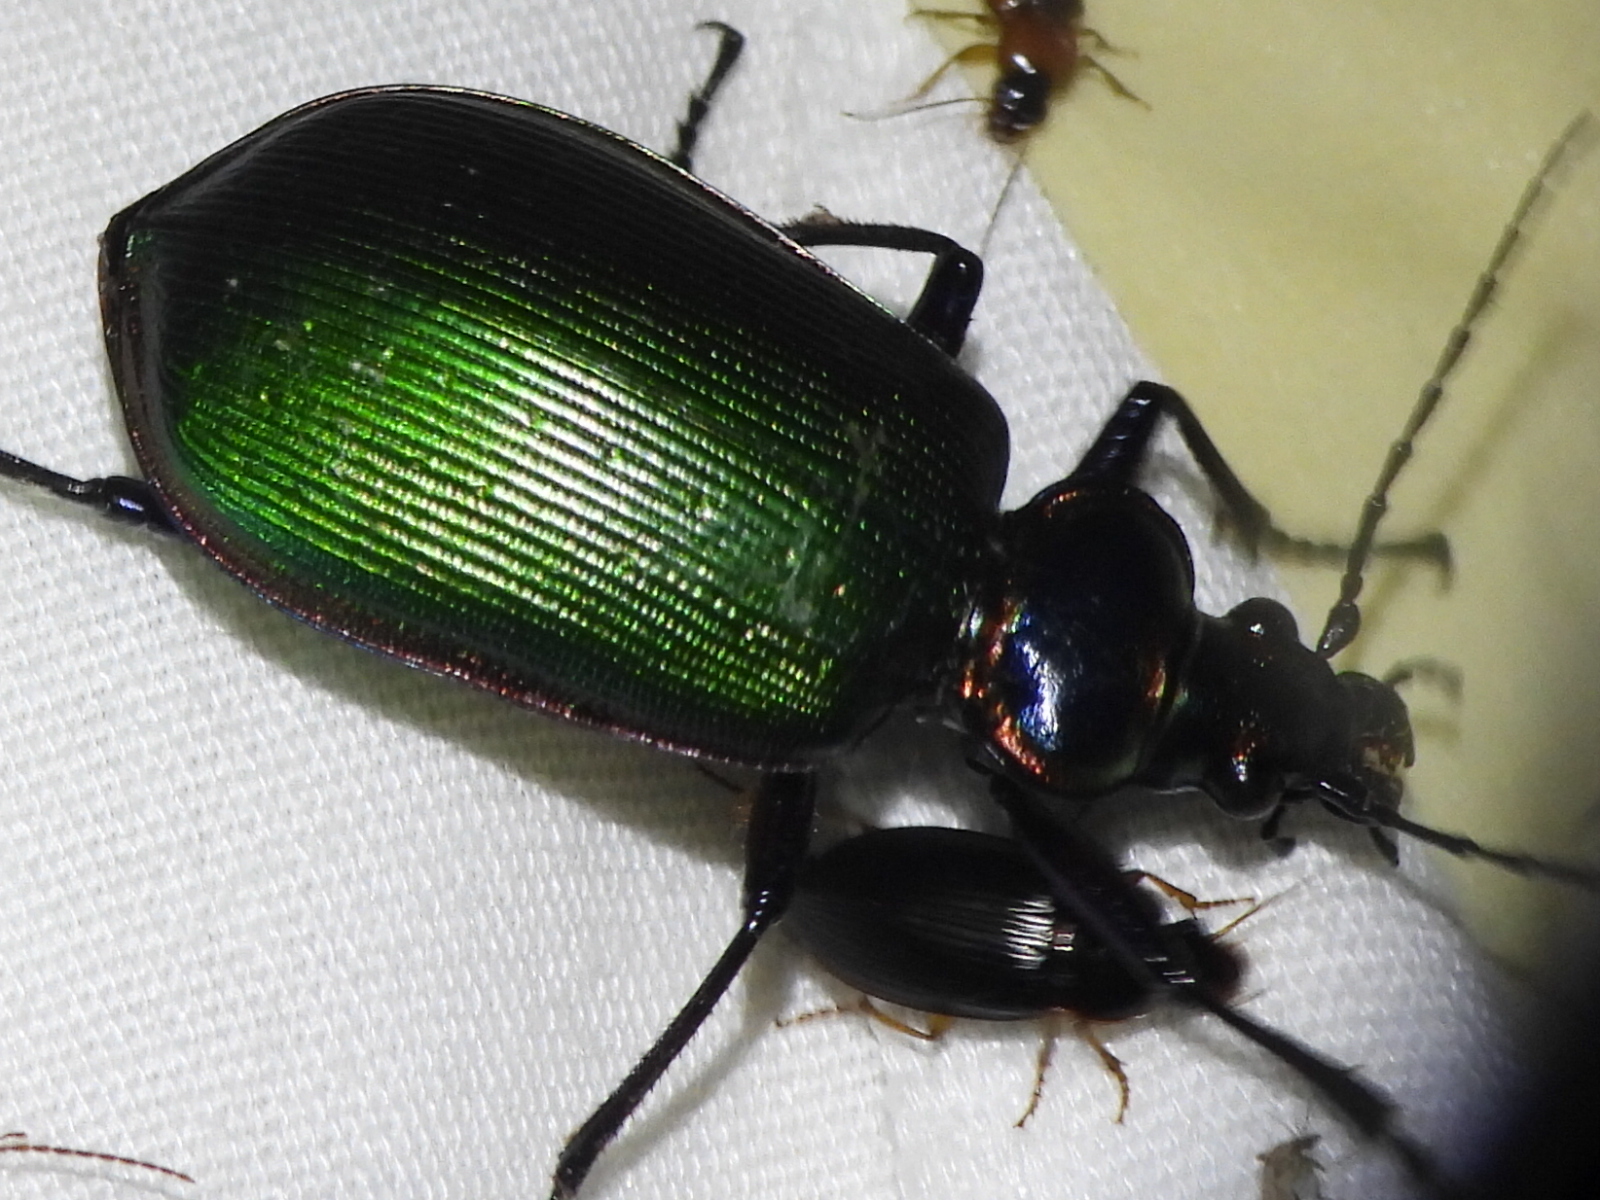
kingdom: Animalia
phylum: Arthropoda
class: Insecta
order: Coleoptera
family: Carabidae
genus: Calosoma
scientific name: Calosoma scrutator
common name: Fiery searcher beetle
